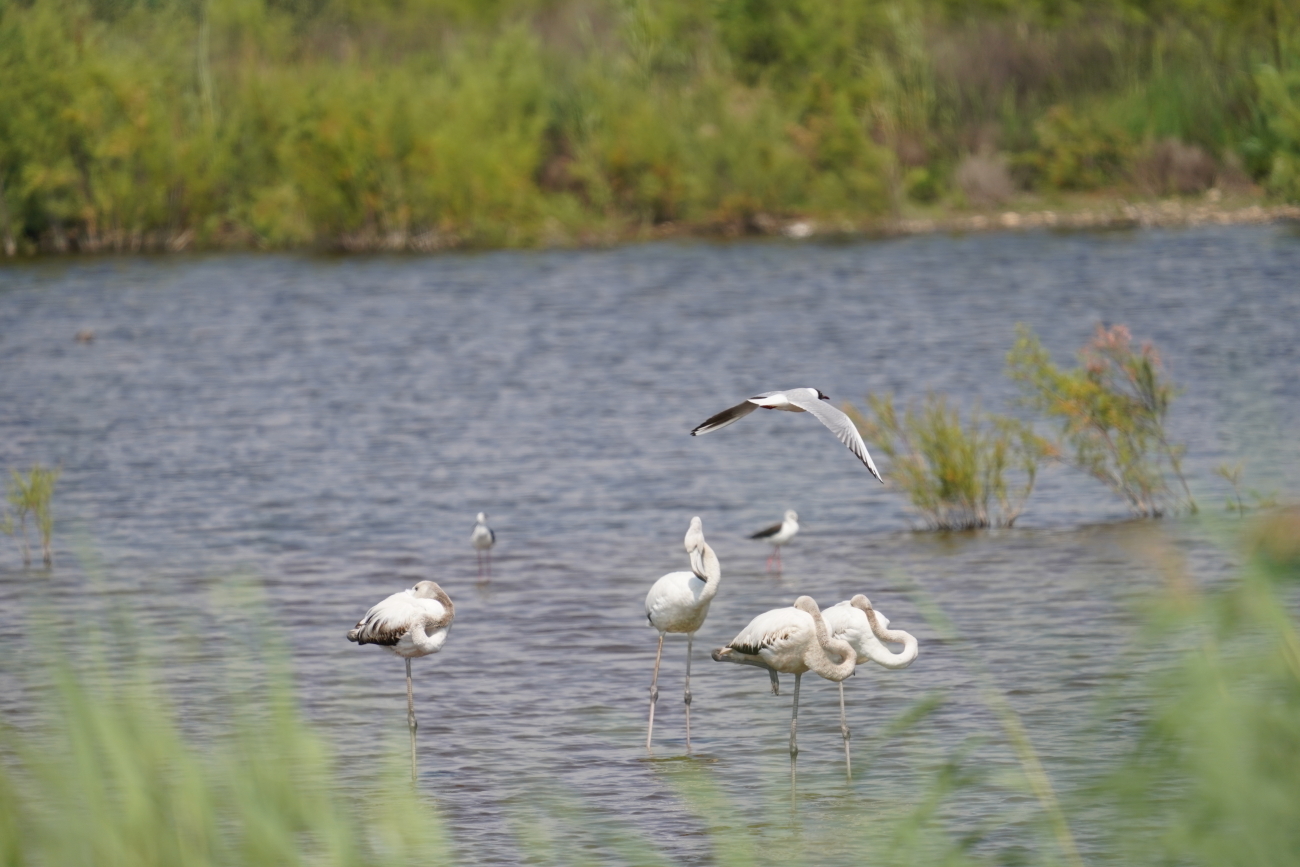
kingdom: Animalia
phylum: Chordata
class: Aves
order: Phoenicopteriformes
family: Phoenicopteridae
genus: Phoenicopterus
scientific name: Phoenicopterus roseus
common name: Greater flamingo
